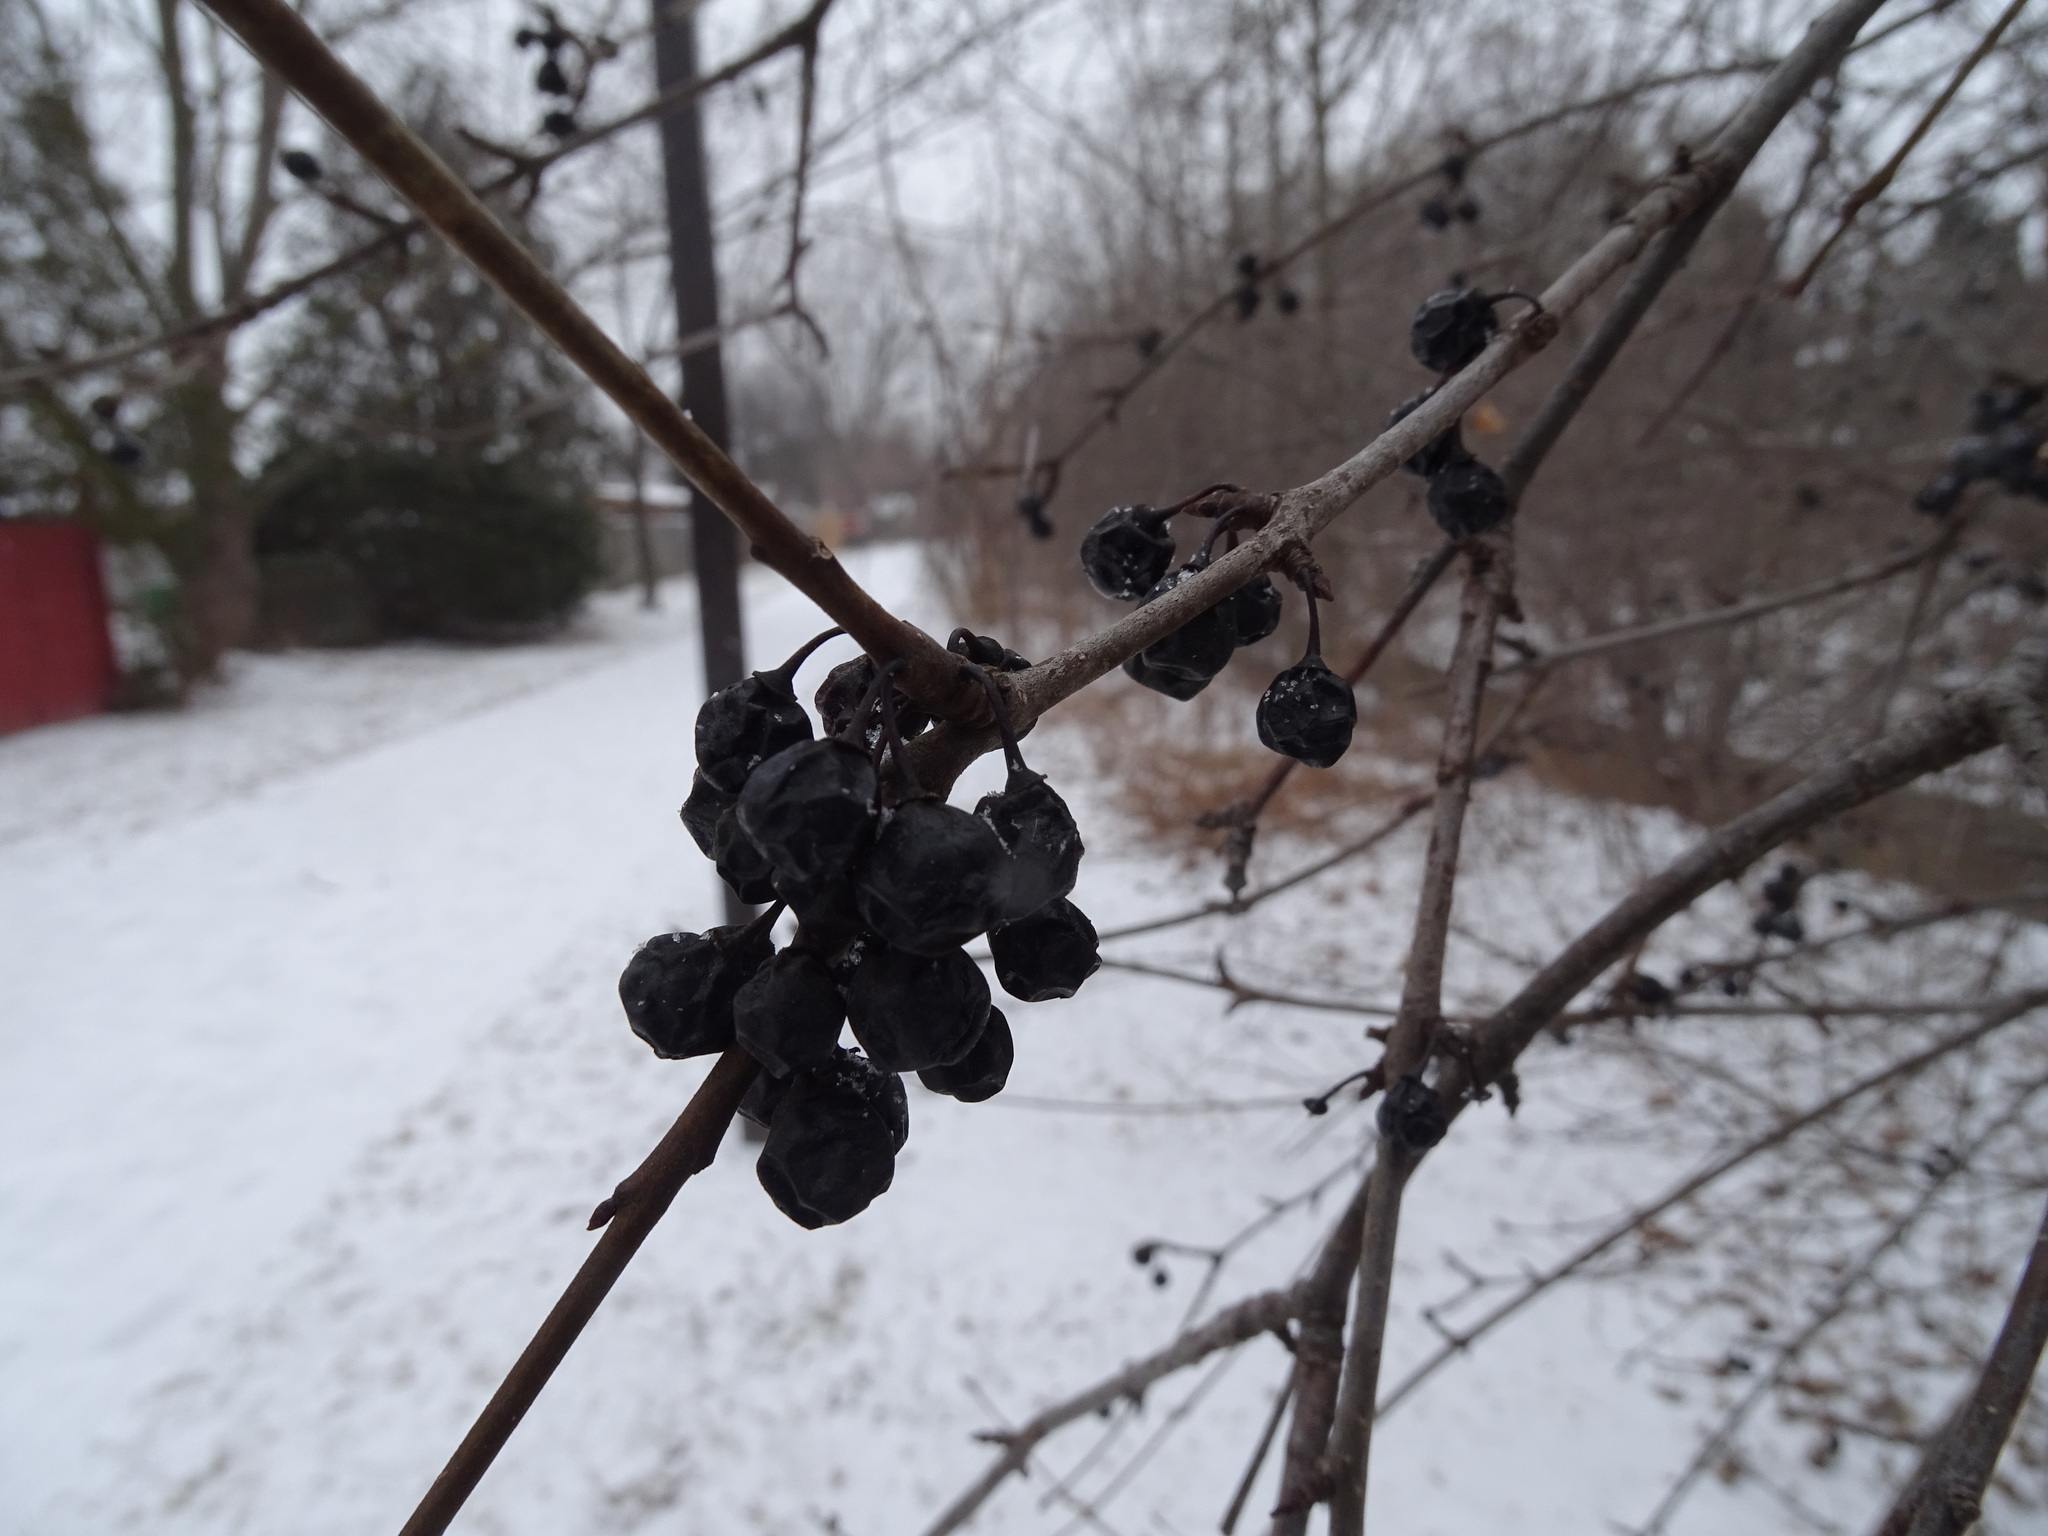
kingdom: Plantae
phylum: Tracheophyta
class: Magnoliopsida
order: Rosales
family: Rhamnaceae
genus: Rhamnus
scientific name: Rhamnus cathartica
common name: Common buckthorn
